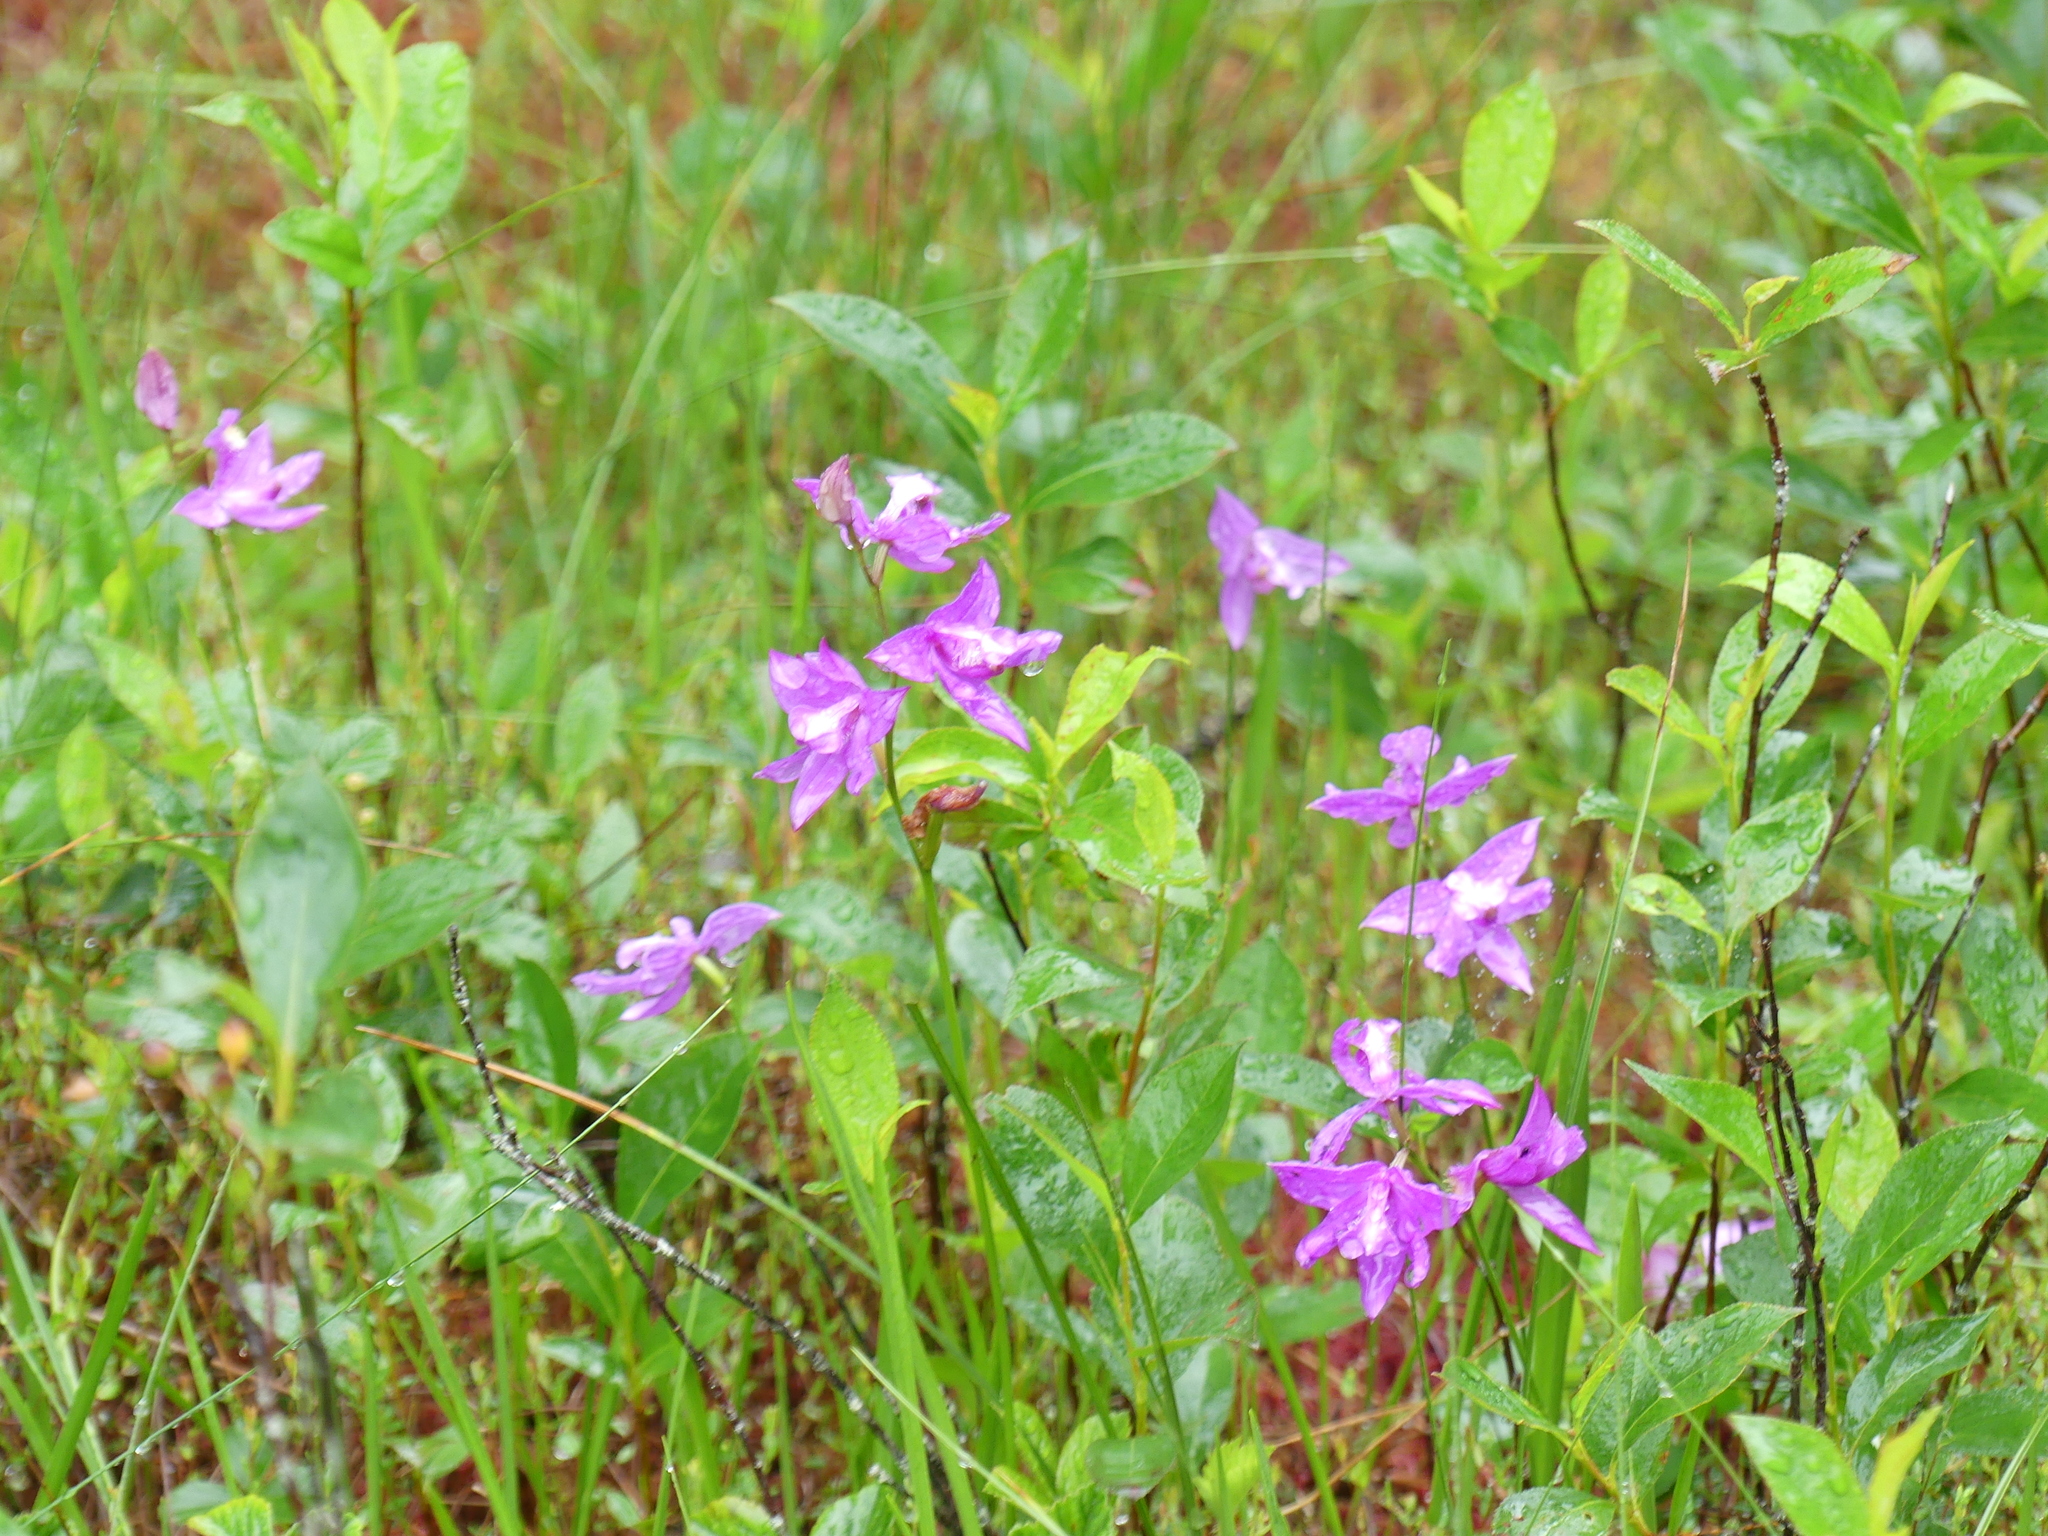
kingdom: Plantae
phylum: Tracheophyta
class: Liliopsida
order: Asparagales
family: Orchidaceae
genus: Calopogon
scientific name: Calopogon tuberosus
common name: Grass-pink
